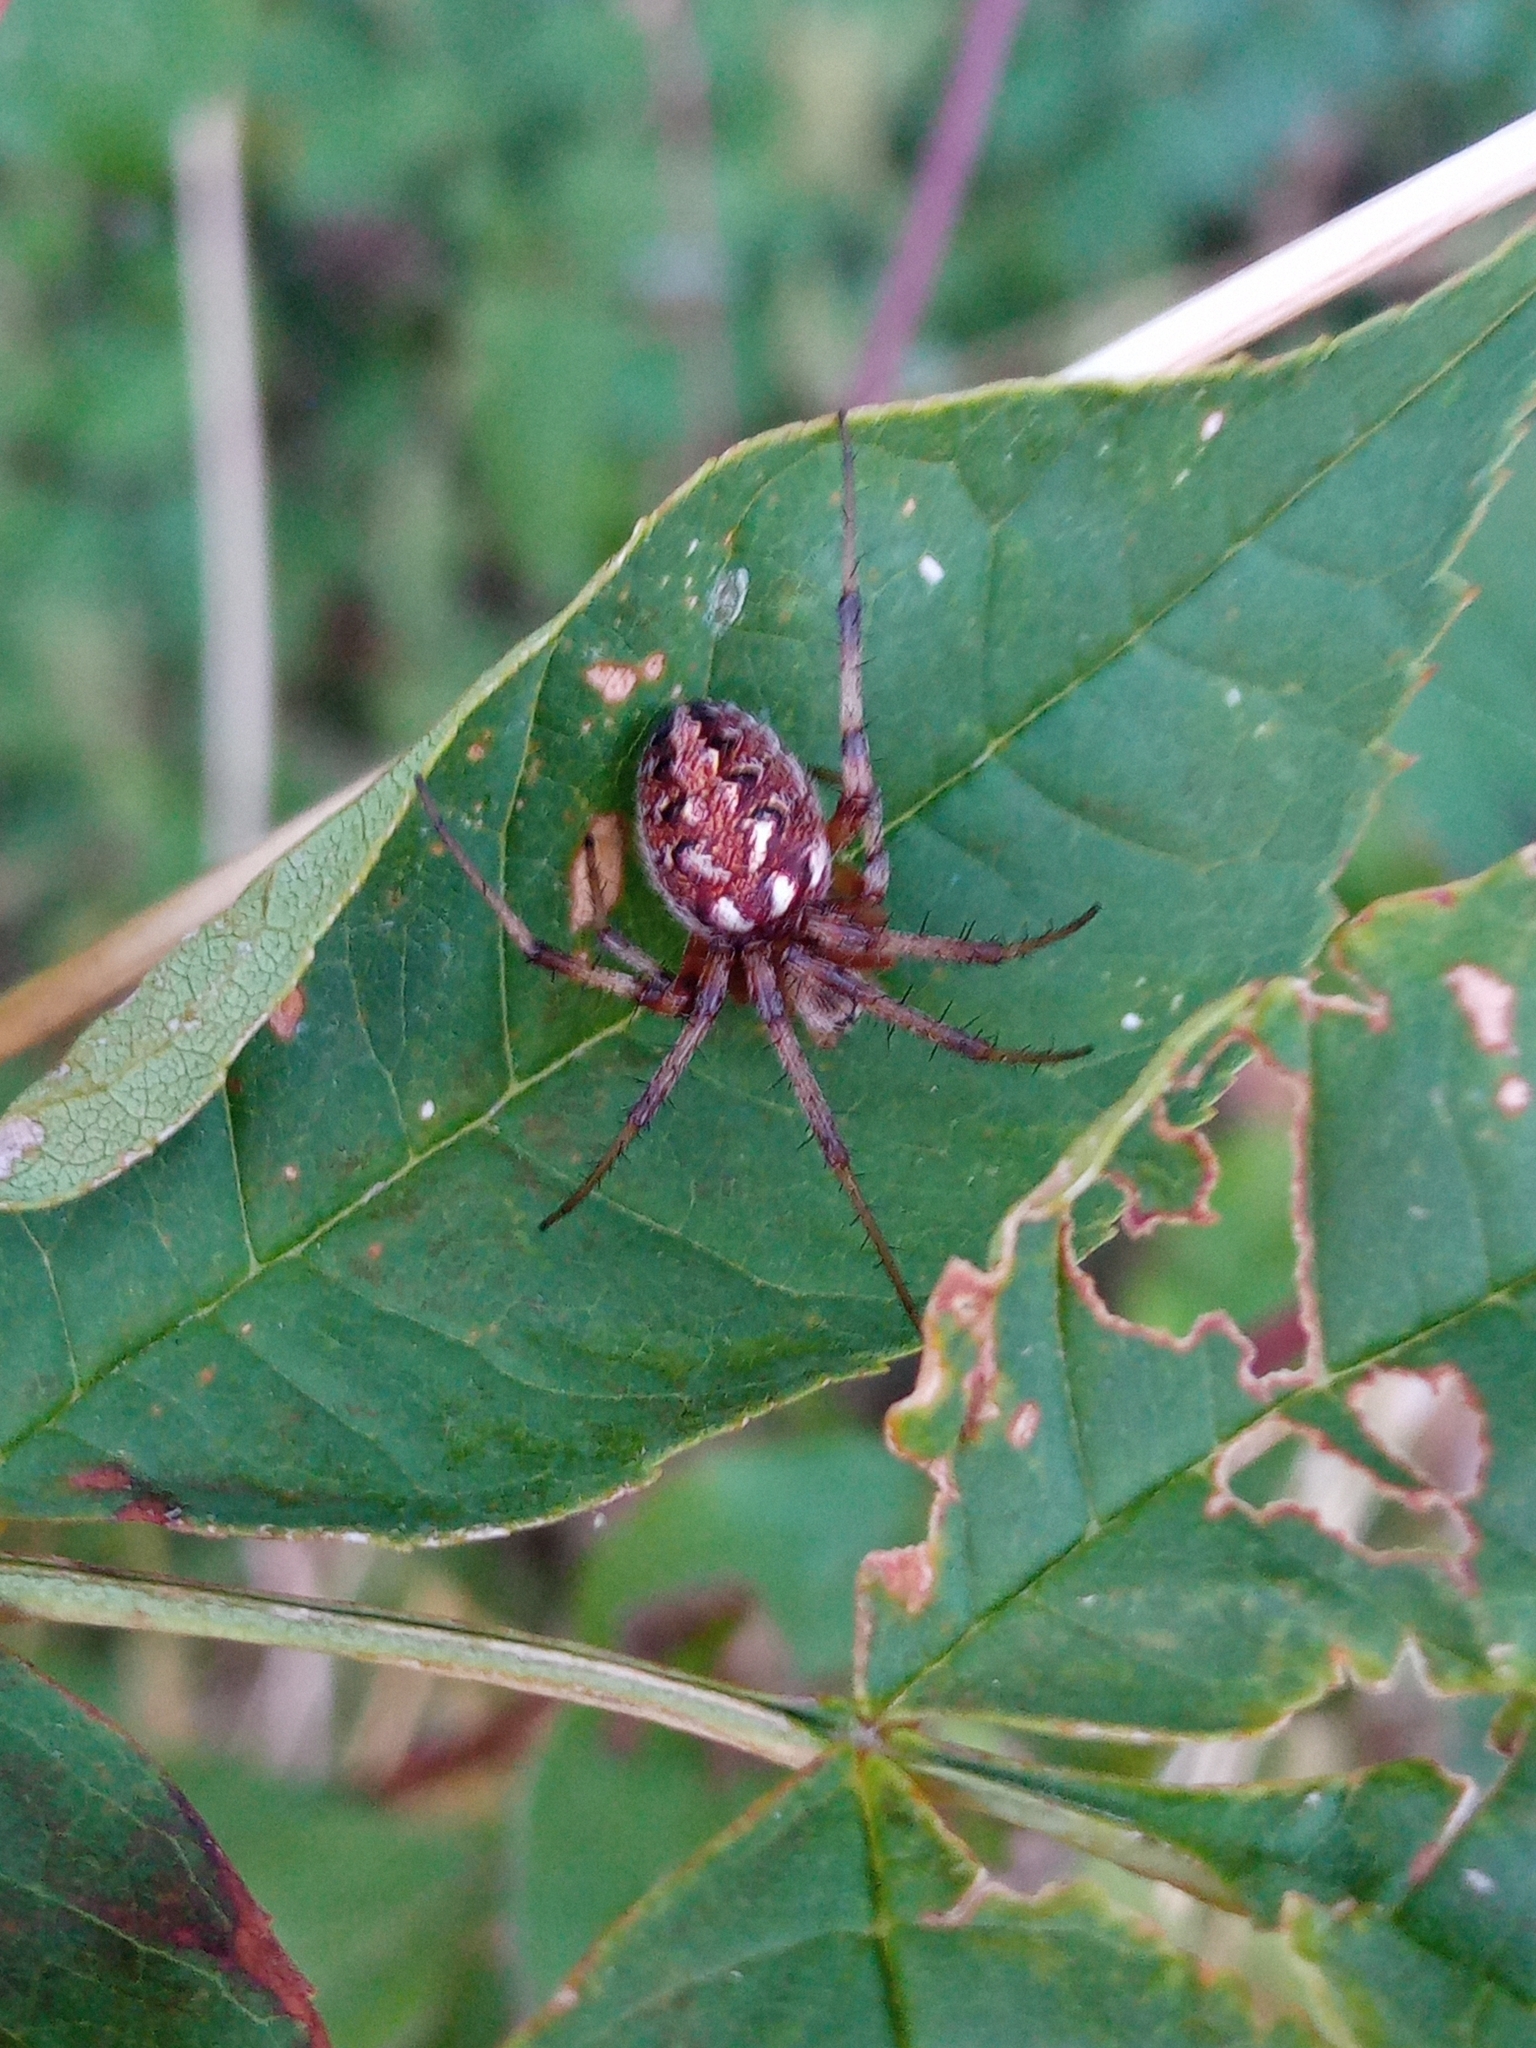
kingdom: Animalia
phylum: Arthropoda
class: Arachnida
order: Araneae
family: Araneidae
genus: Neoscona
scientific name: Neoscona adianta
